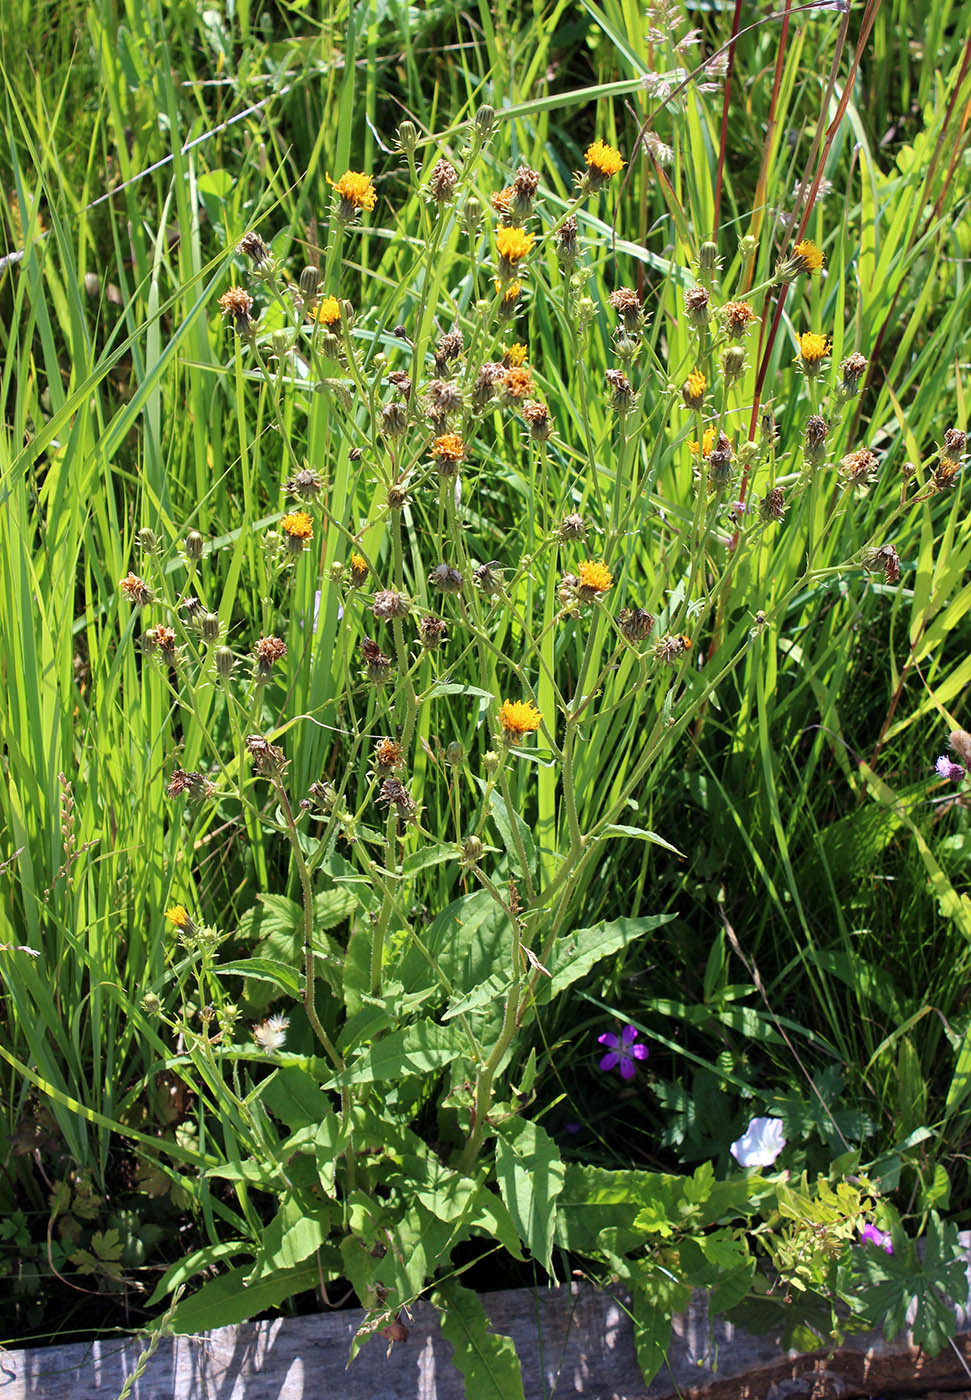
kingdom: Plantae
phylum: Tracheophyta
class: Magnoliopsida
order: Asterales
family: Asteraceae
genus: Picris
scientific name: Picris hieracioides
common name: Hawkweed oxtongue
